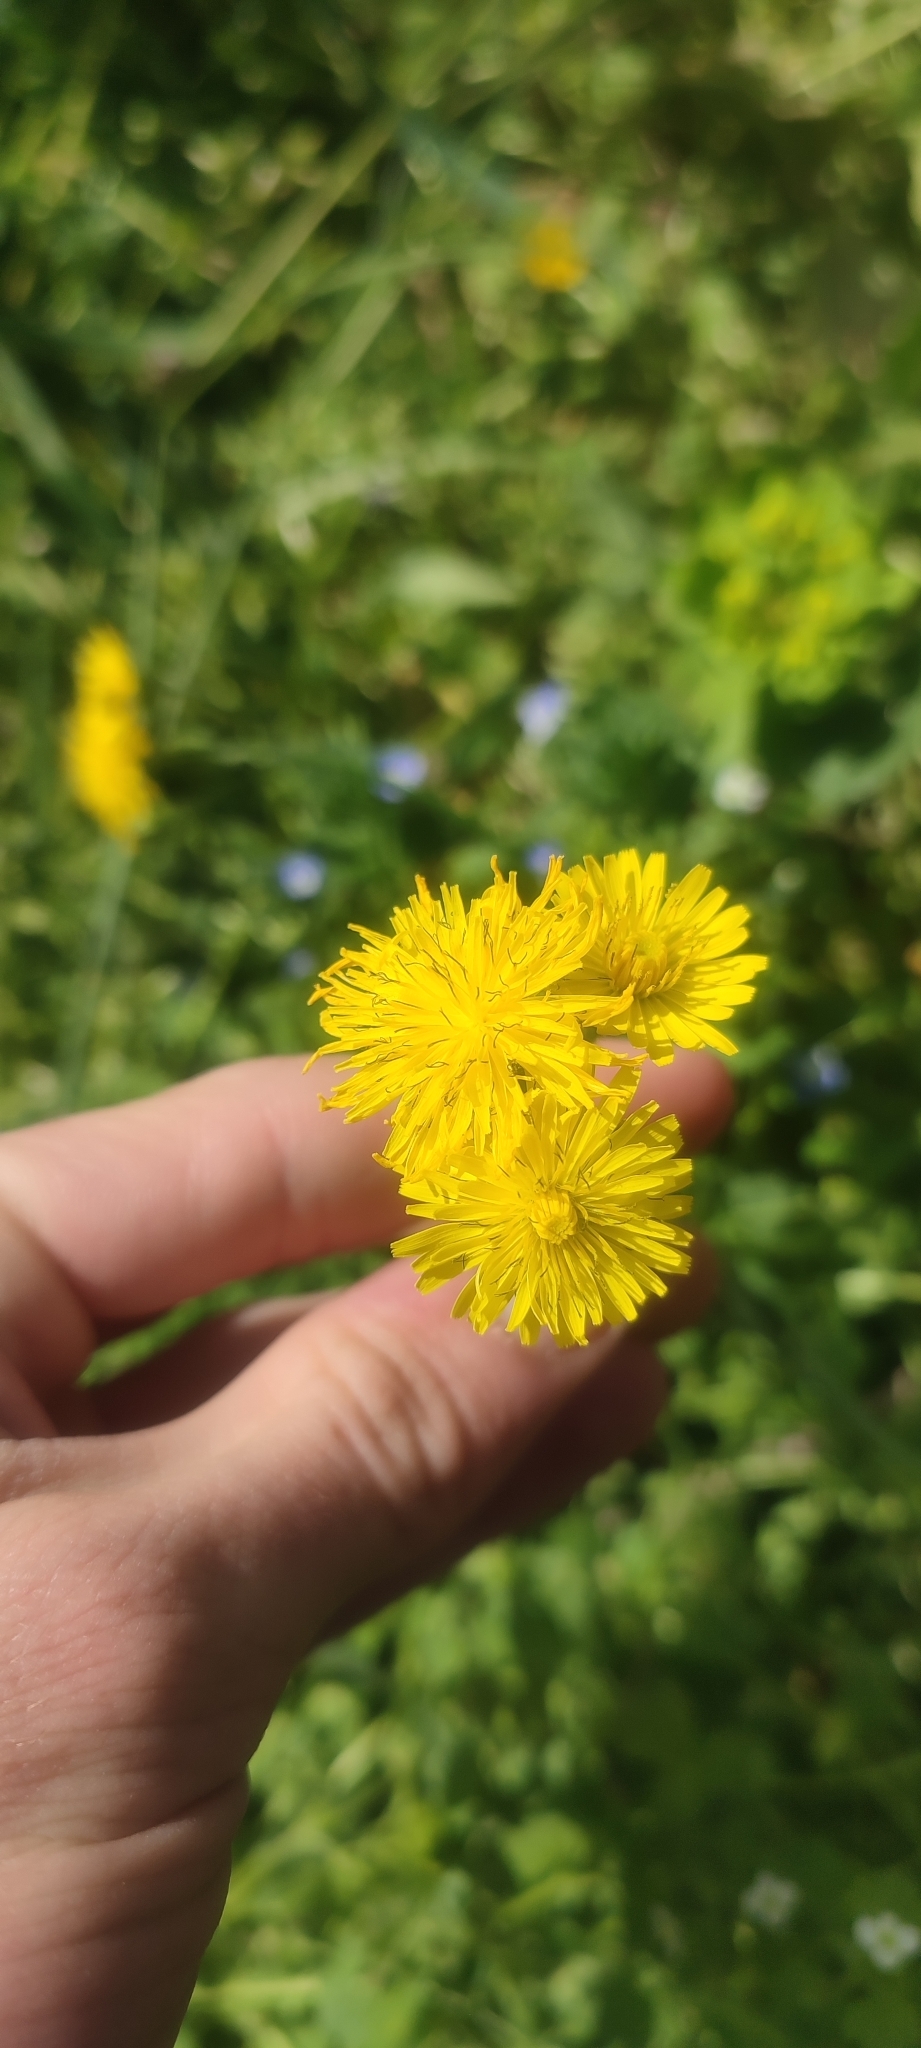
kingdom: Plantae
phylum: Tracheophyta
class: Magnoliopsida
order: Asterales
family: Asteraceae
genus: Crepis
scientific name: Crepis sancta
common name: Hawk's-beard
